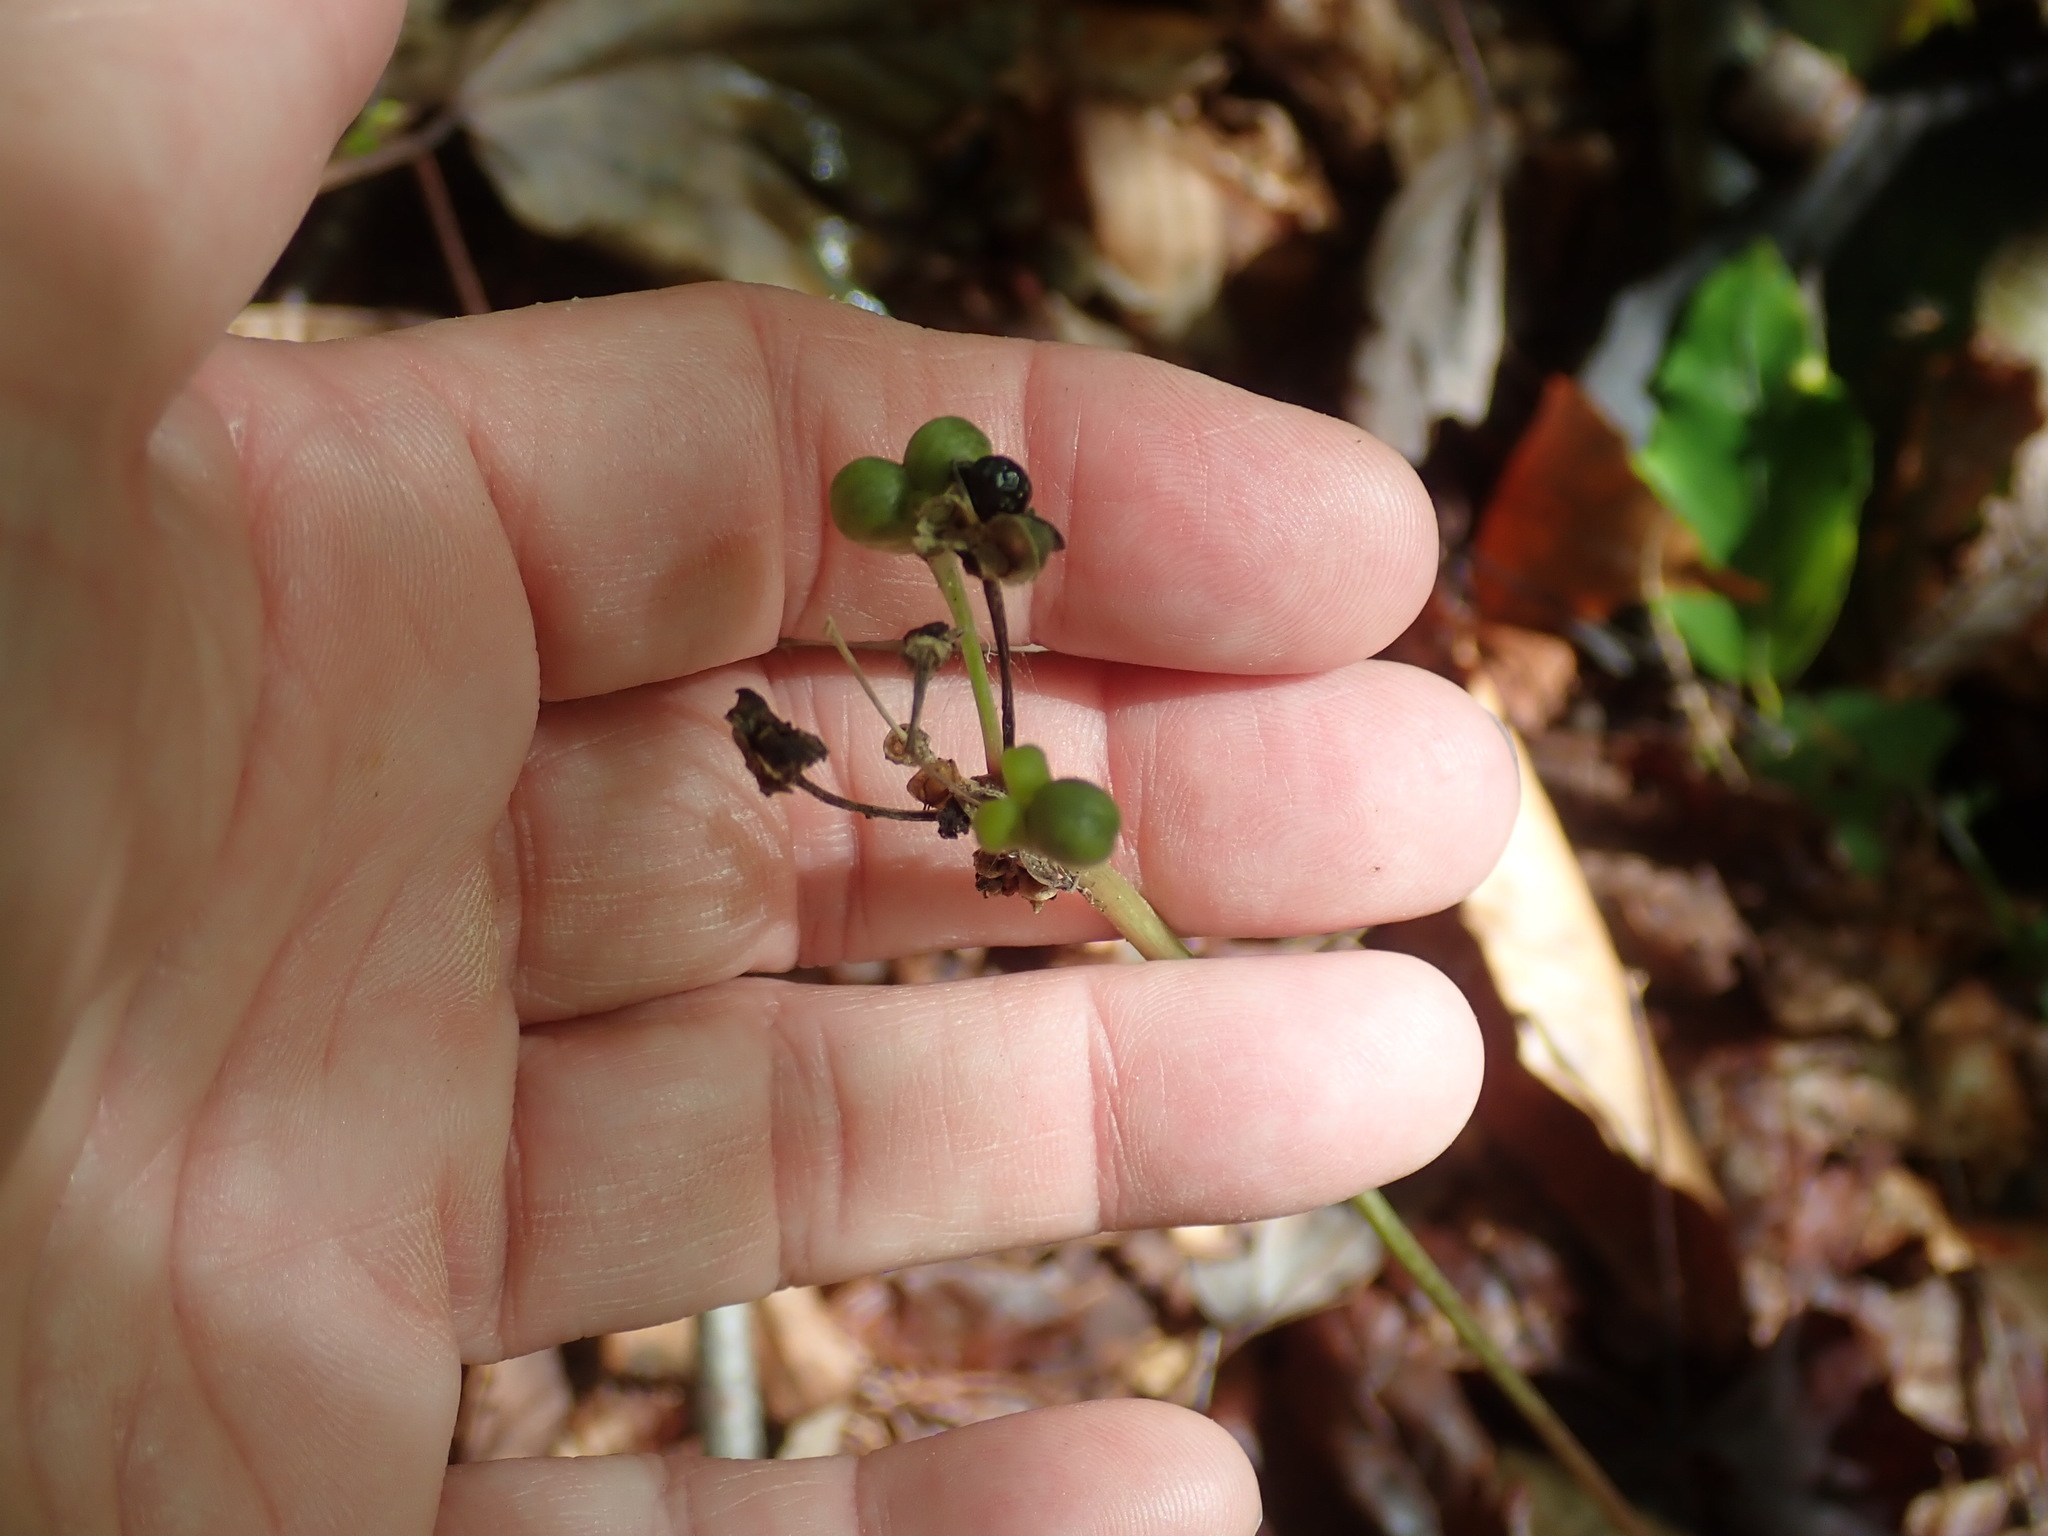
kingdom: Plantae
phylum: Tracheophyta
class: Liliopsida
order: Asparagales
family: Amaryllidaceae
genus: Allium
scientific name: Allium tricoccum
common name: Ramp
